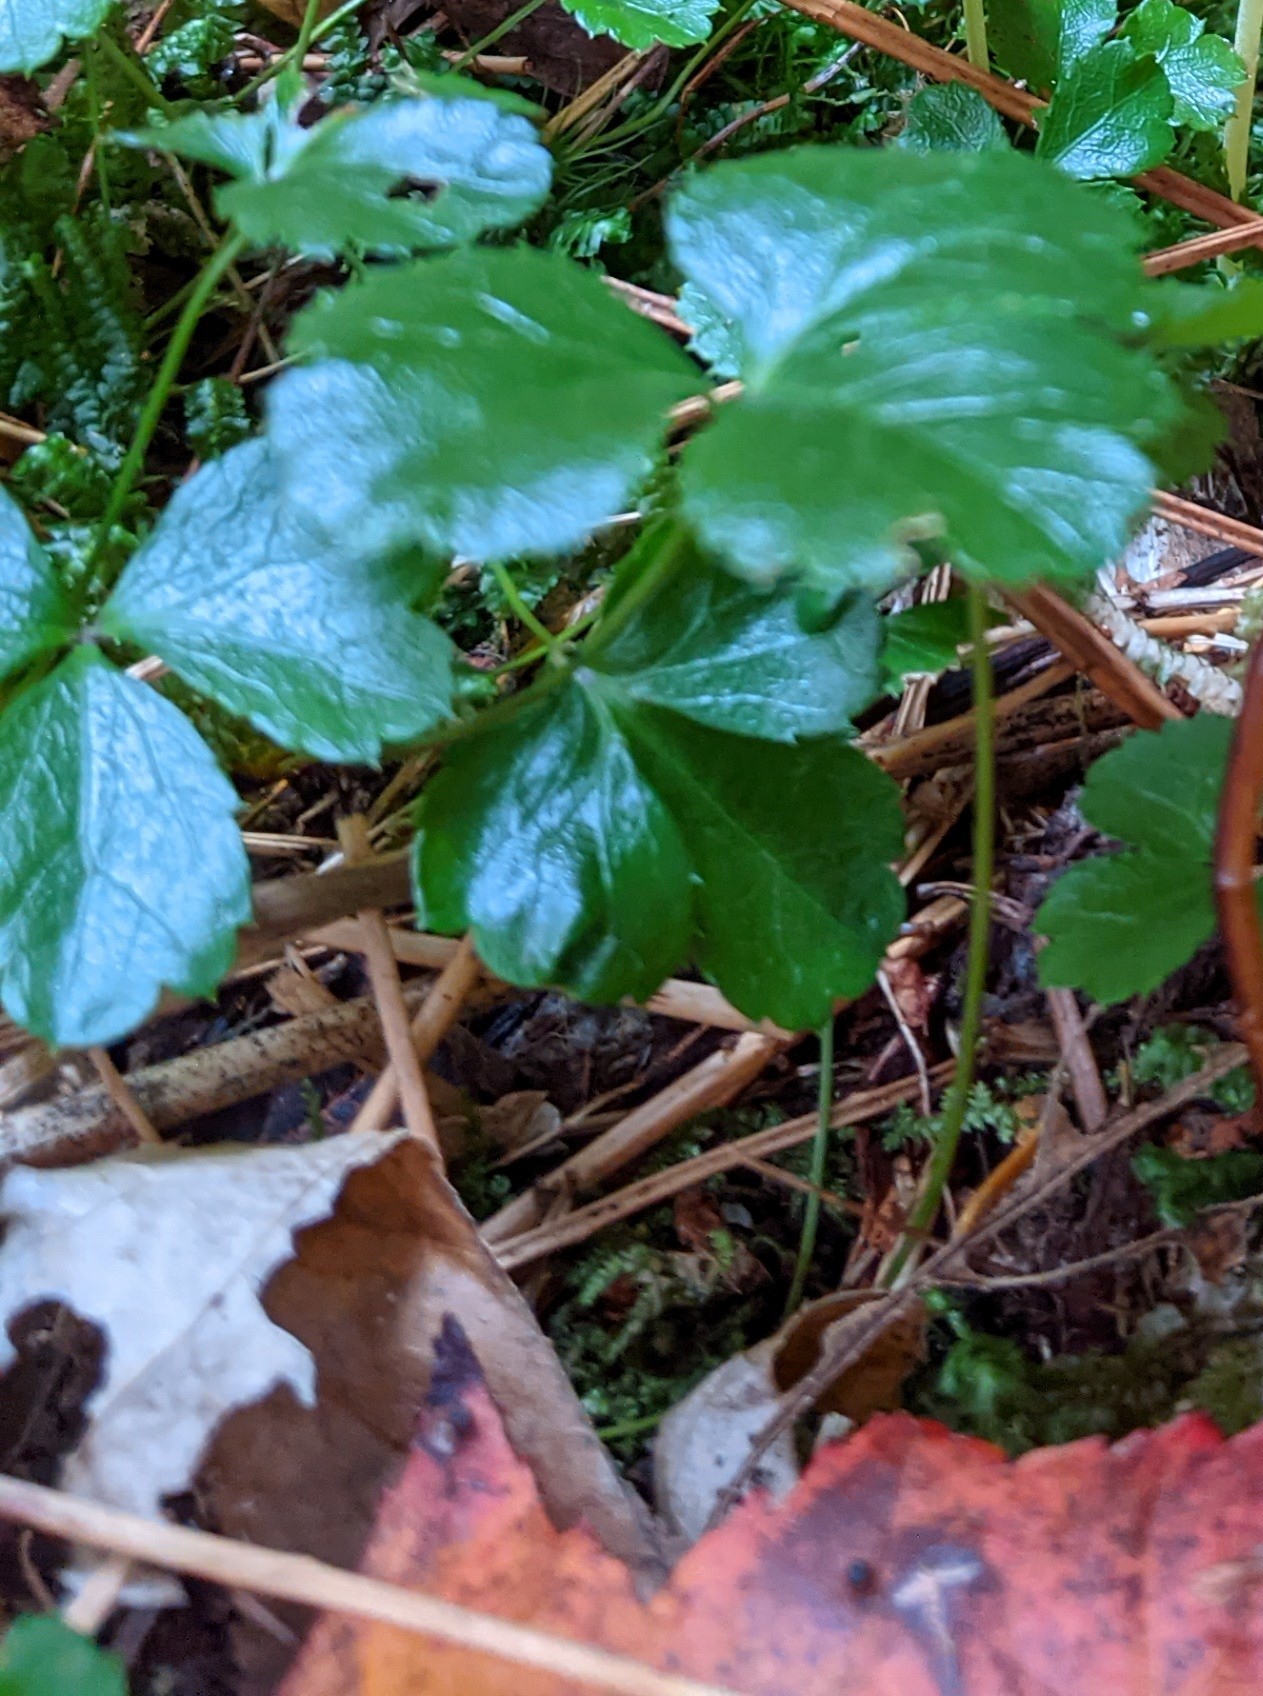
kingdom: Plantae
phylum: Tracheophyta
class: Magnoliopsida
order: Ranunculales
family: Ranunculaceae
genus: Coptis
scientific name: Coptis trifolia
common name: Canker-root
